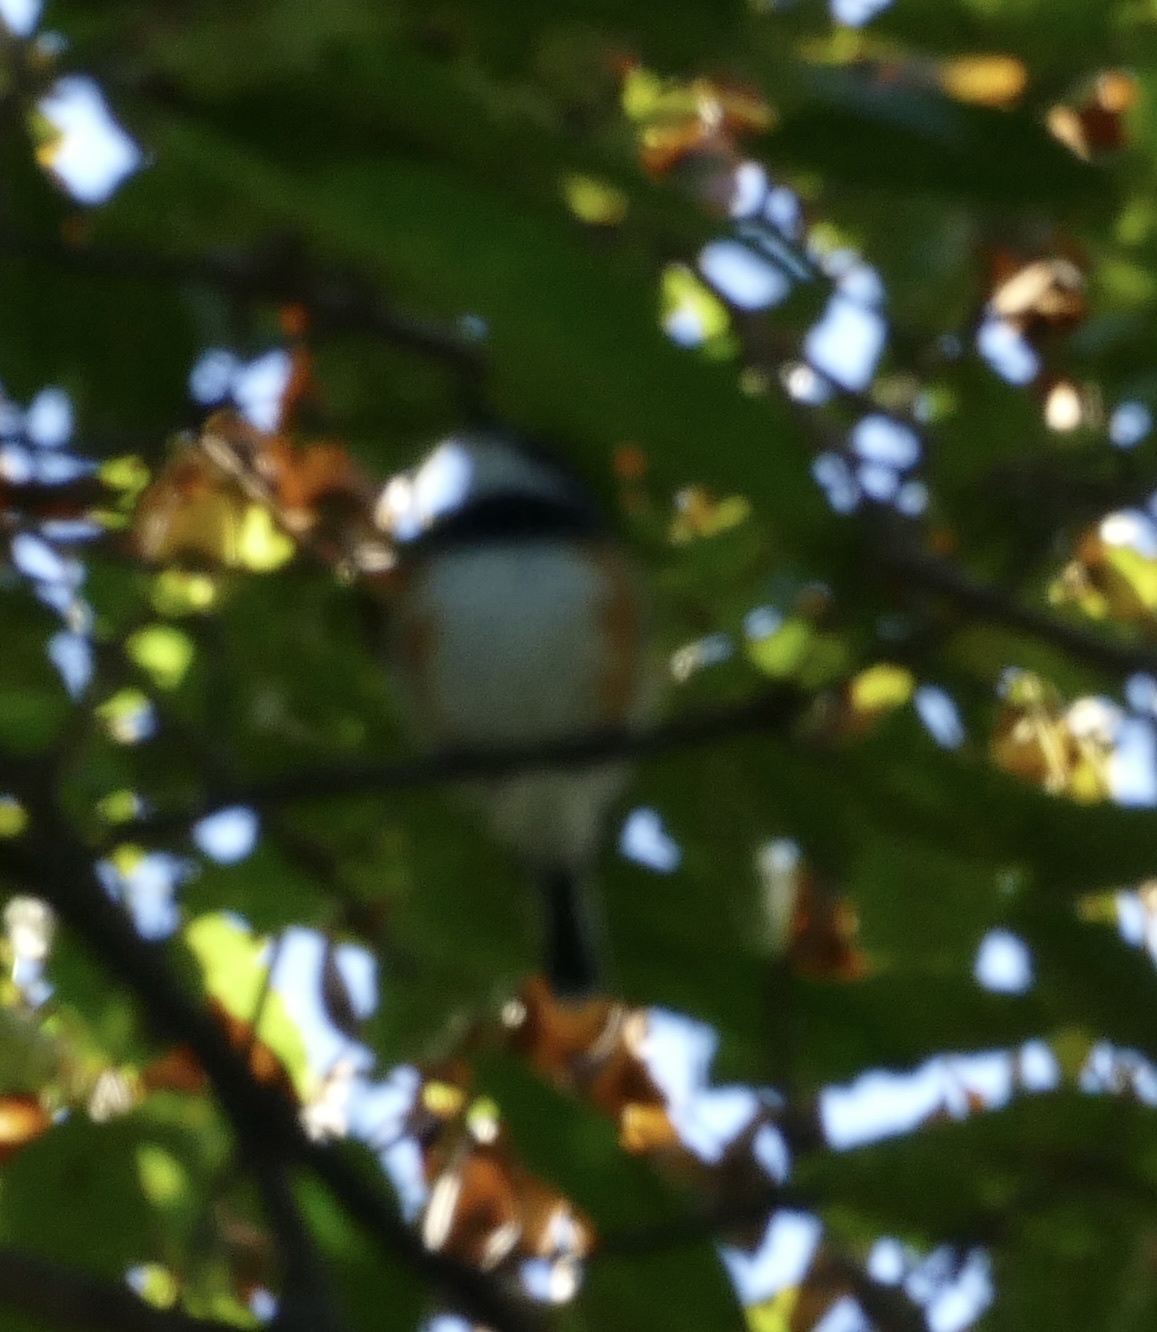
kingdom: Animalia
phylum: Chordata
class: Aves
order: Passeriformes
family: Platysteiridae
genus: Batis
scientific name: Batis capensis
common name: Cape batis
